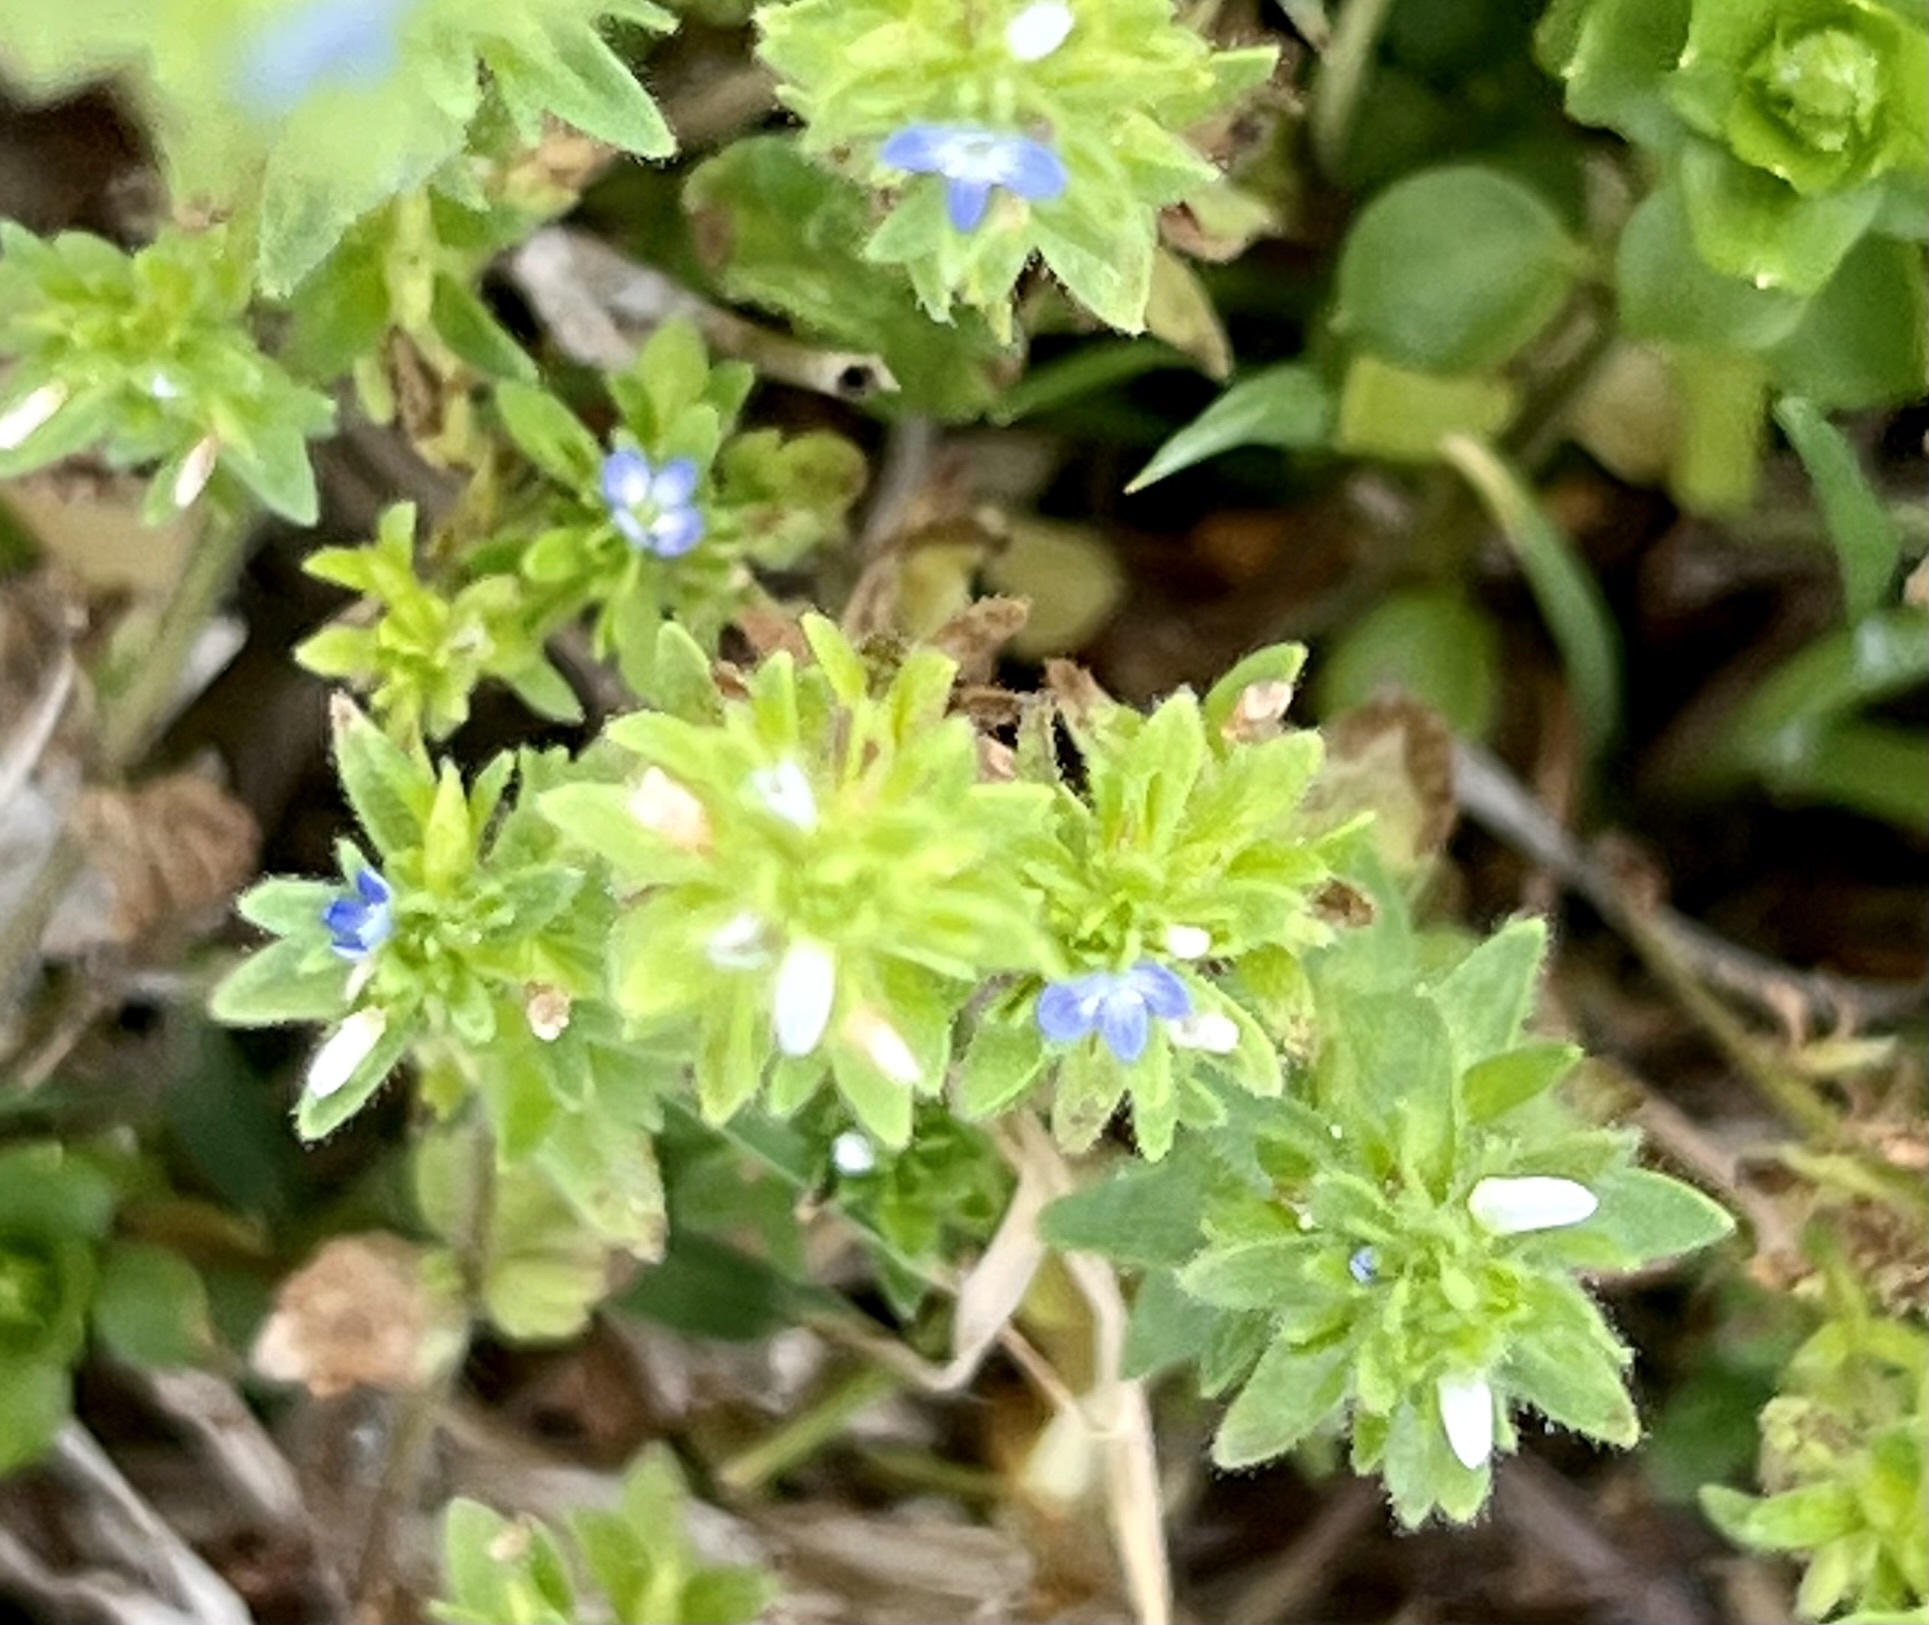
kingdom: Plantae
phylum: Tracheophyta
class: Magnoliopsida
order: Lamiales
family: Plantaginaceae
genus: Veronica
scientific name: Veronica arvensis
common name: Corn speedwell
